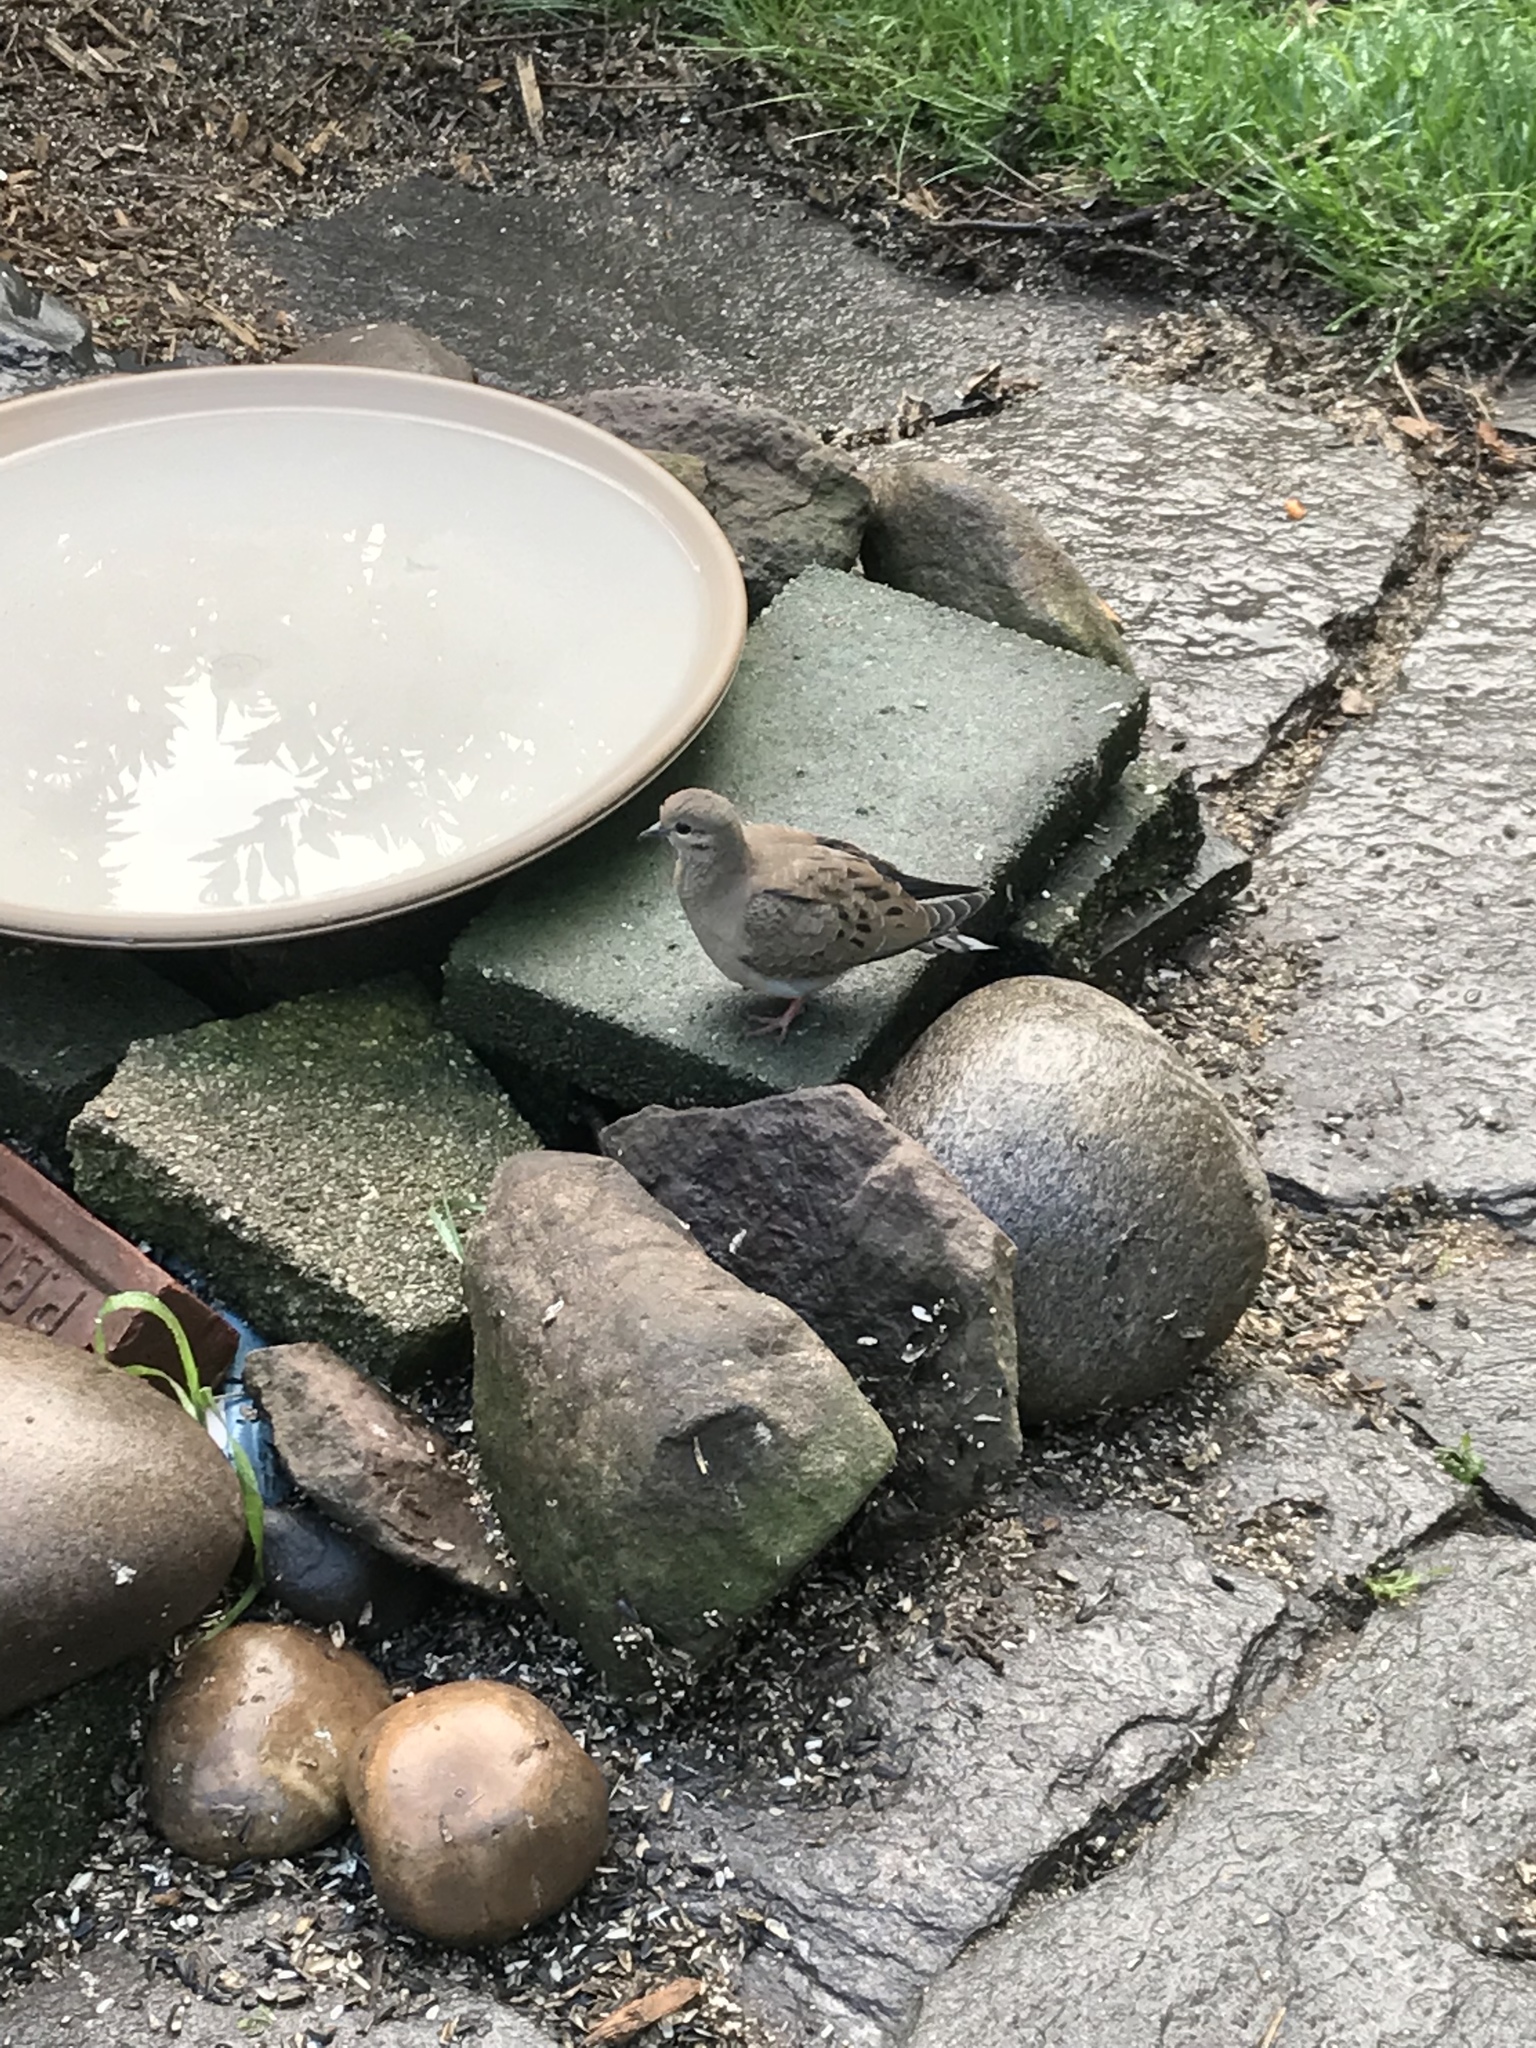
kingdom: Animalia
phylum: Chordata
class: Aves
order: Columbiformes
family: Columbidae
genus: Zenaida
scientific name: Zenaida macroura
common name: Mourning dove
